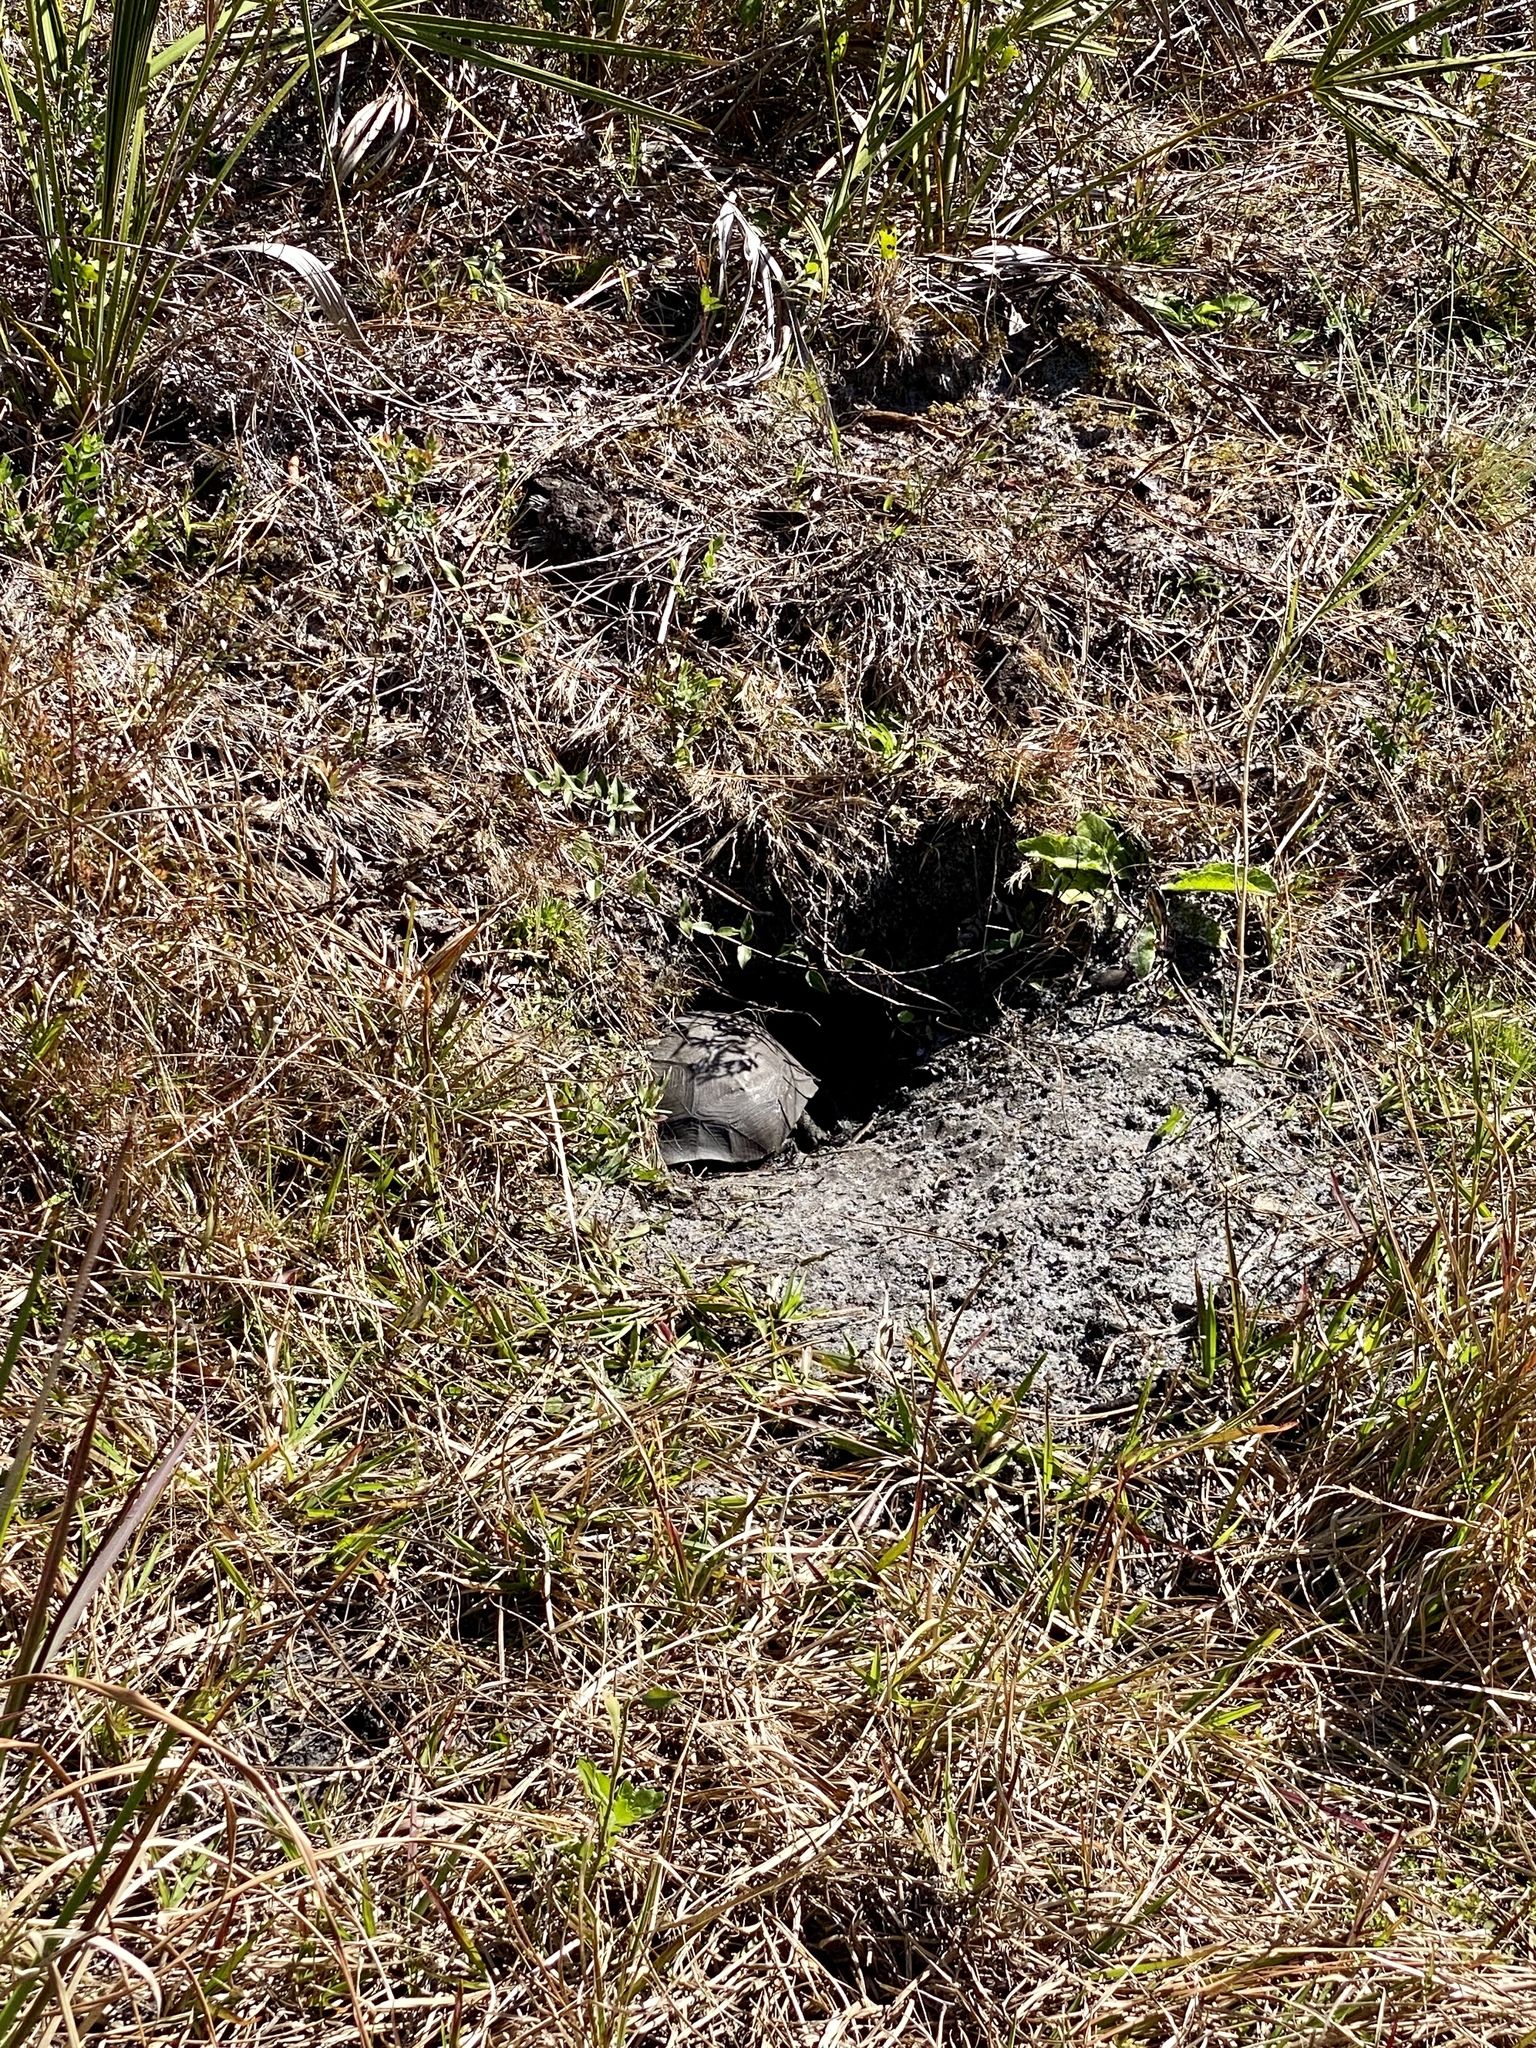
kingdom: Animalia
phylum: Chordata
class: Testudines
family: Testudinidae
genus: Gopherus
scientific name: Gopherus polyphemus
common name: Florida gopher tortoise
